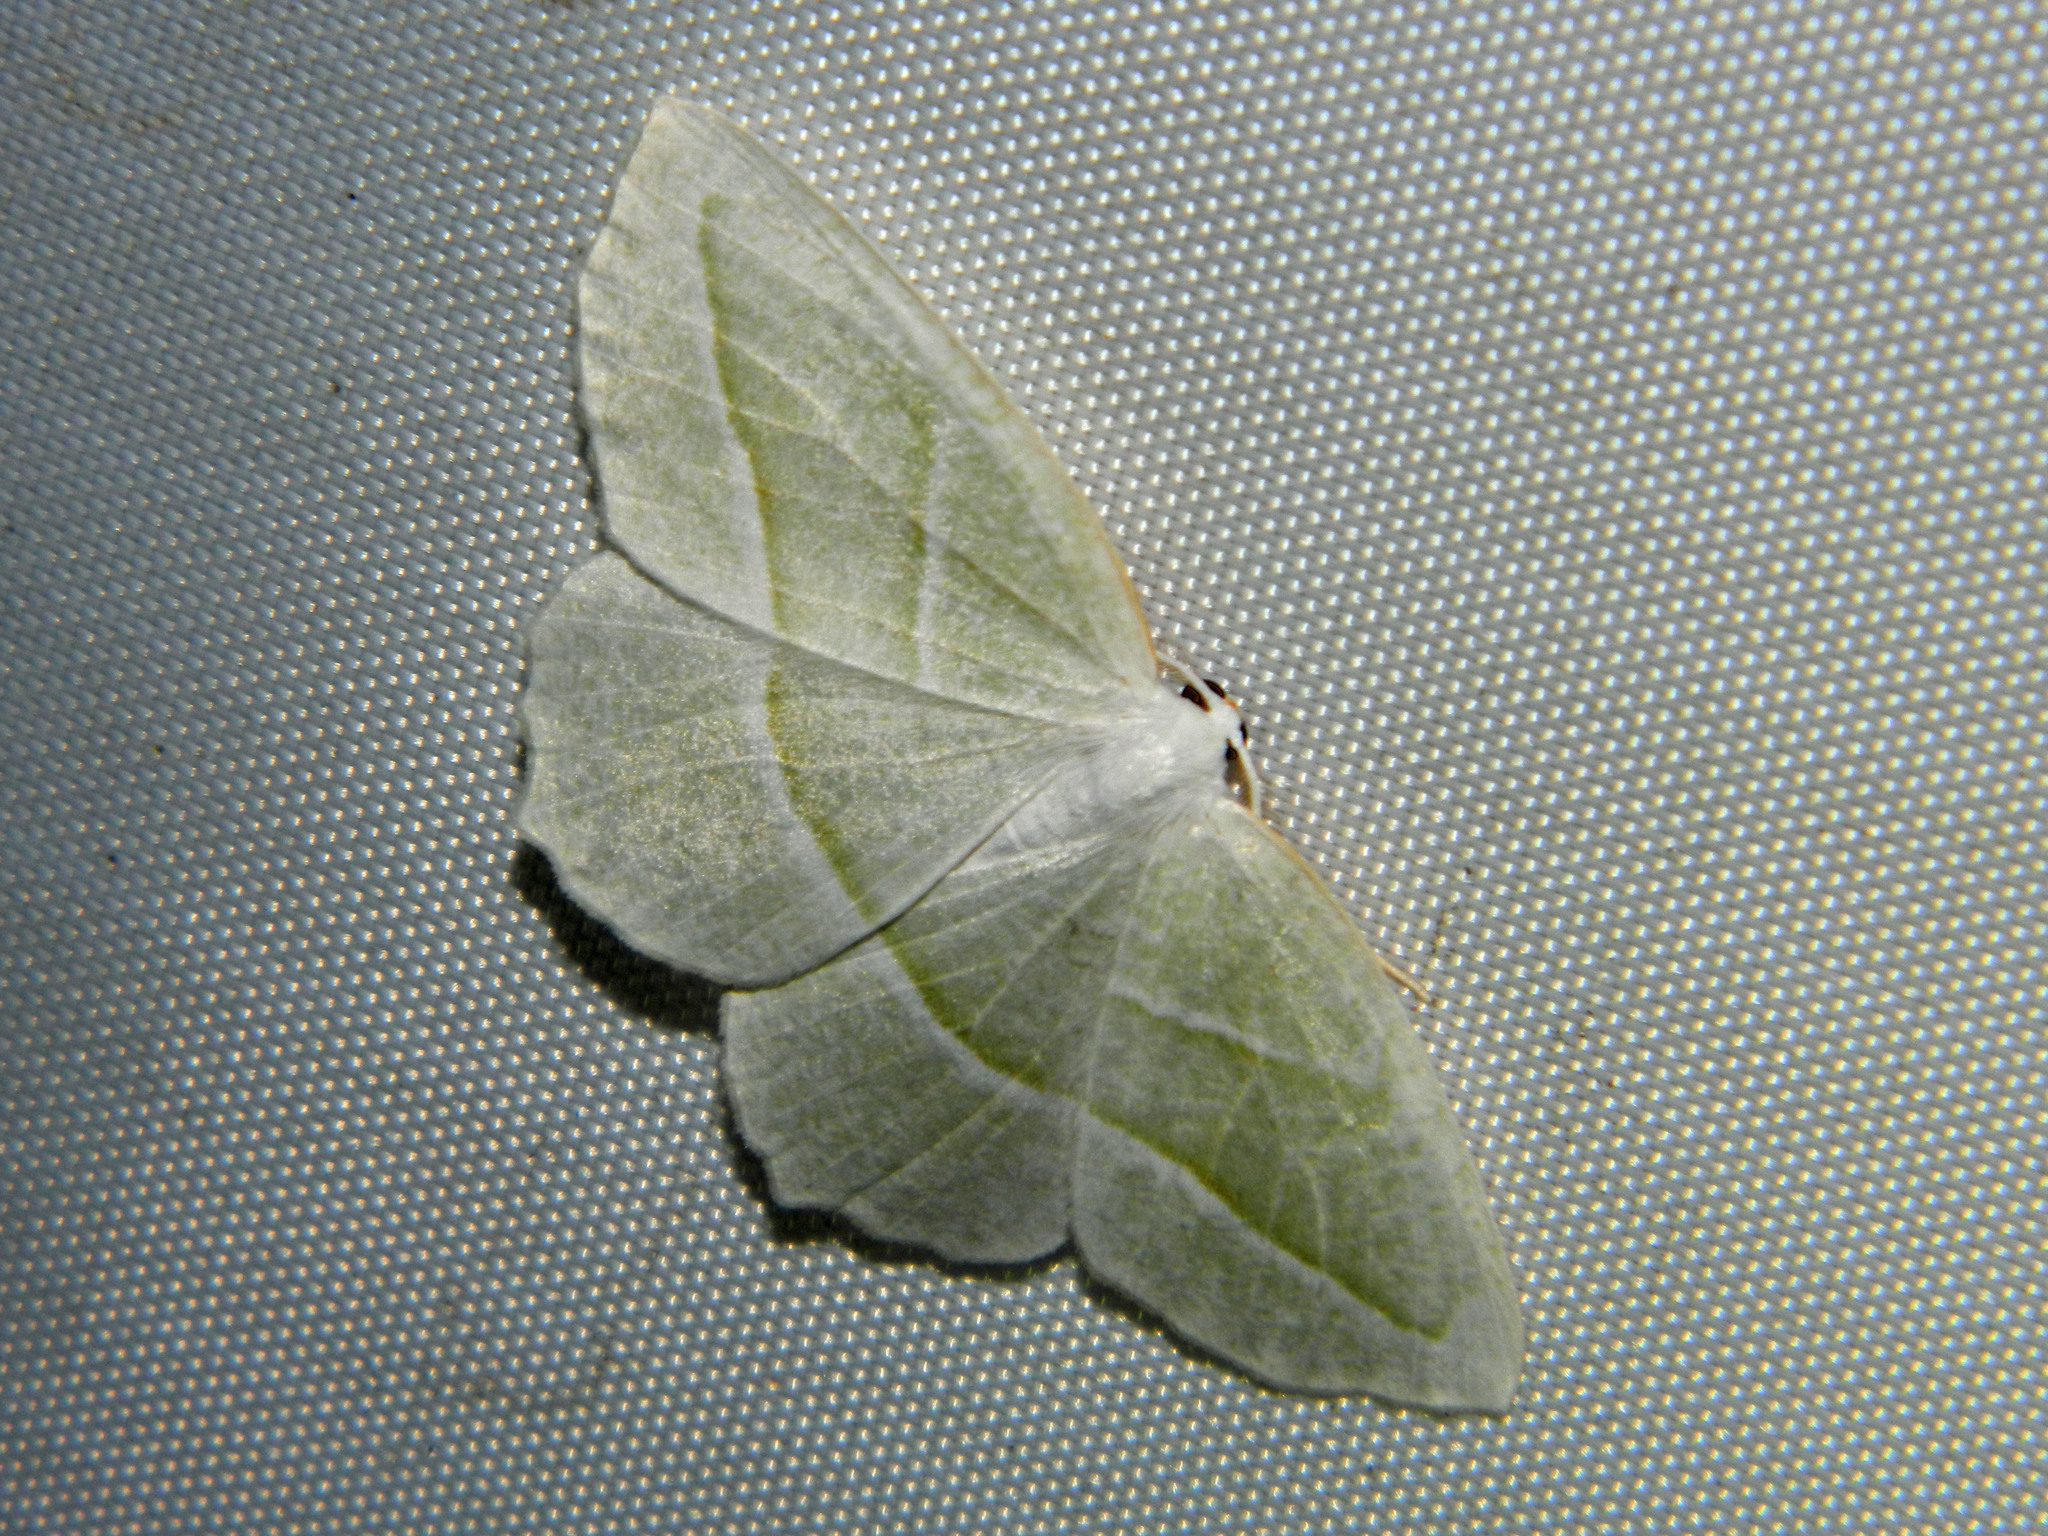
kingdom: Animalia
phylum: Arthropoda
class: Insecta
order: Lepidoptera
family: Geometridae
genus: Campaea
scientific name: Campaea perlata
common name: Fringed looper
